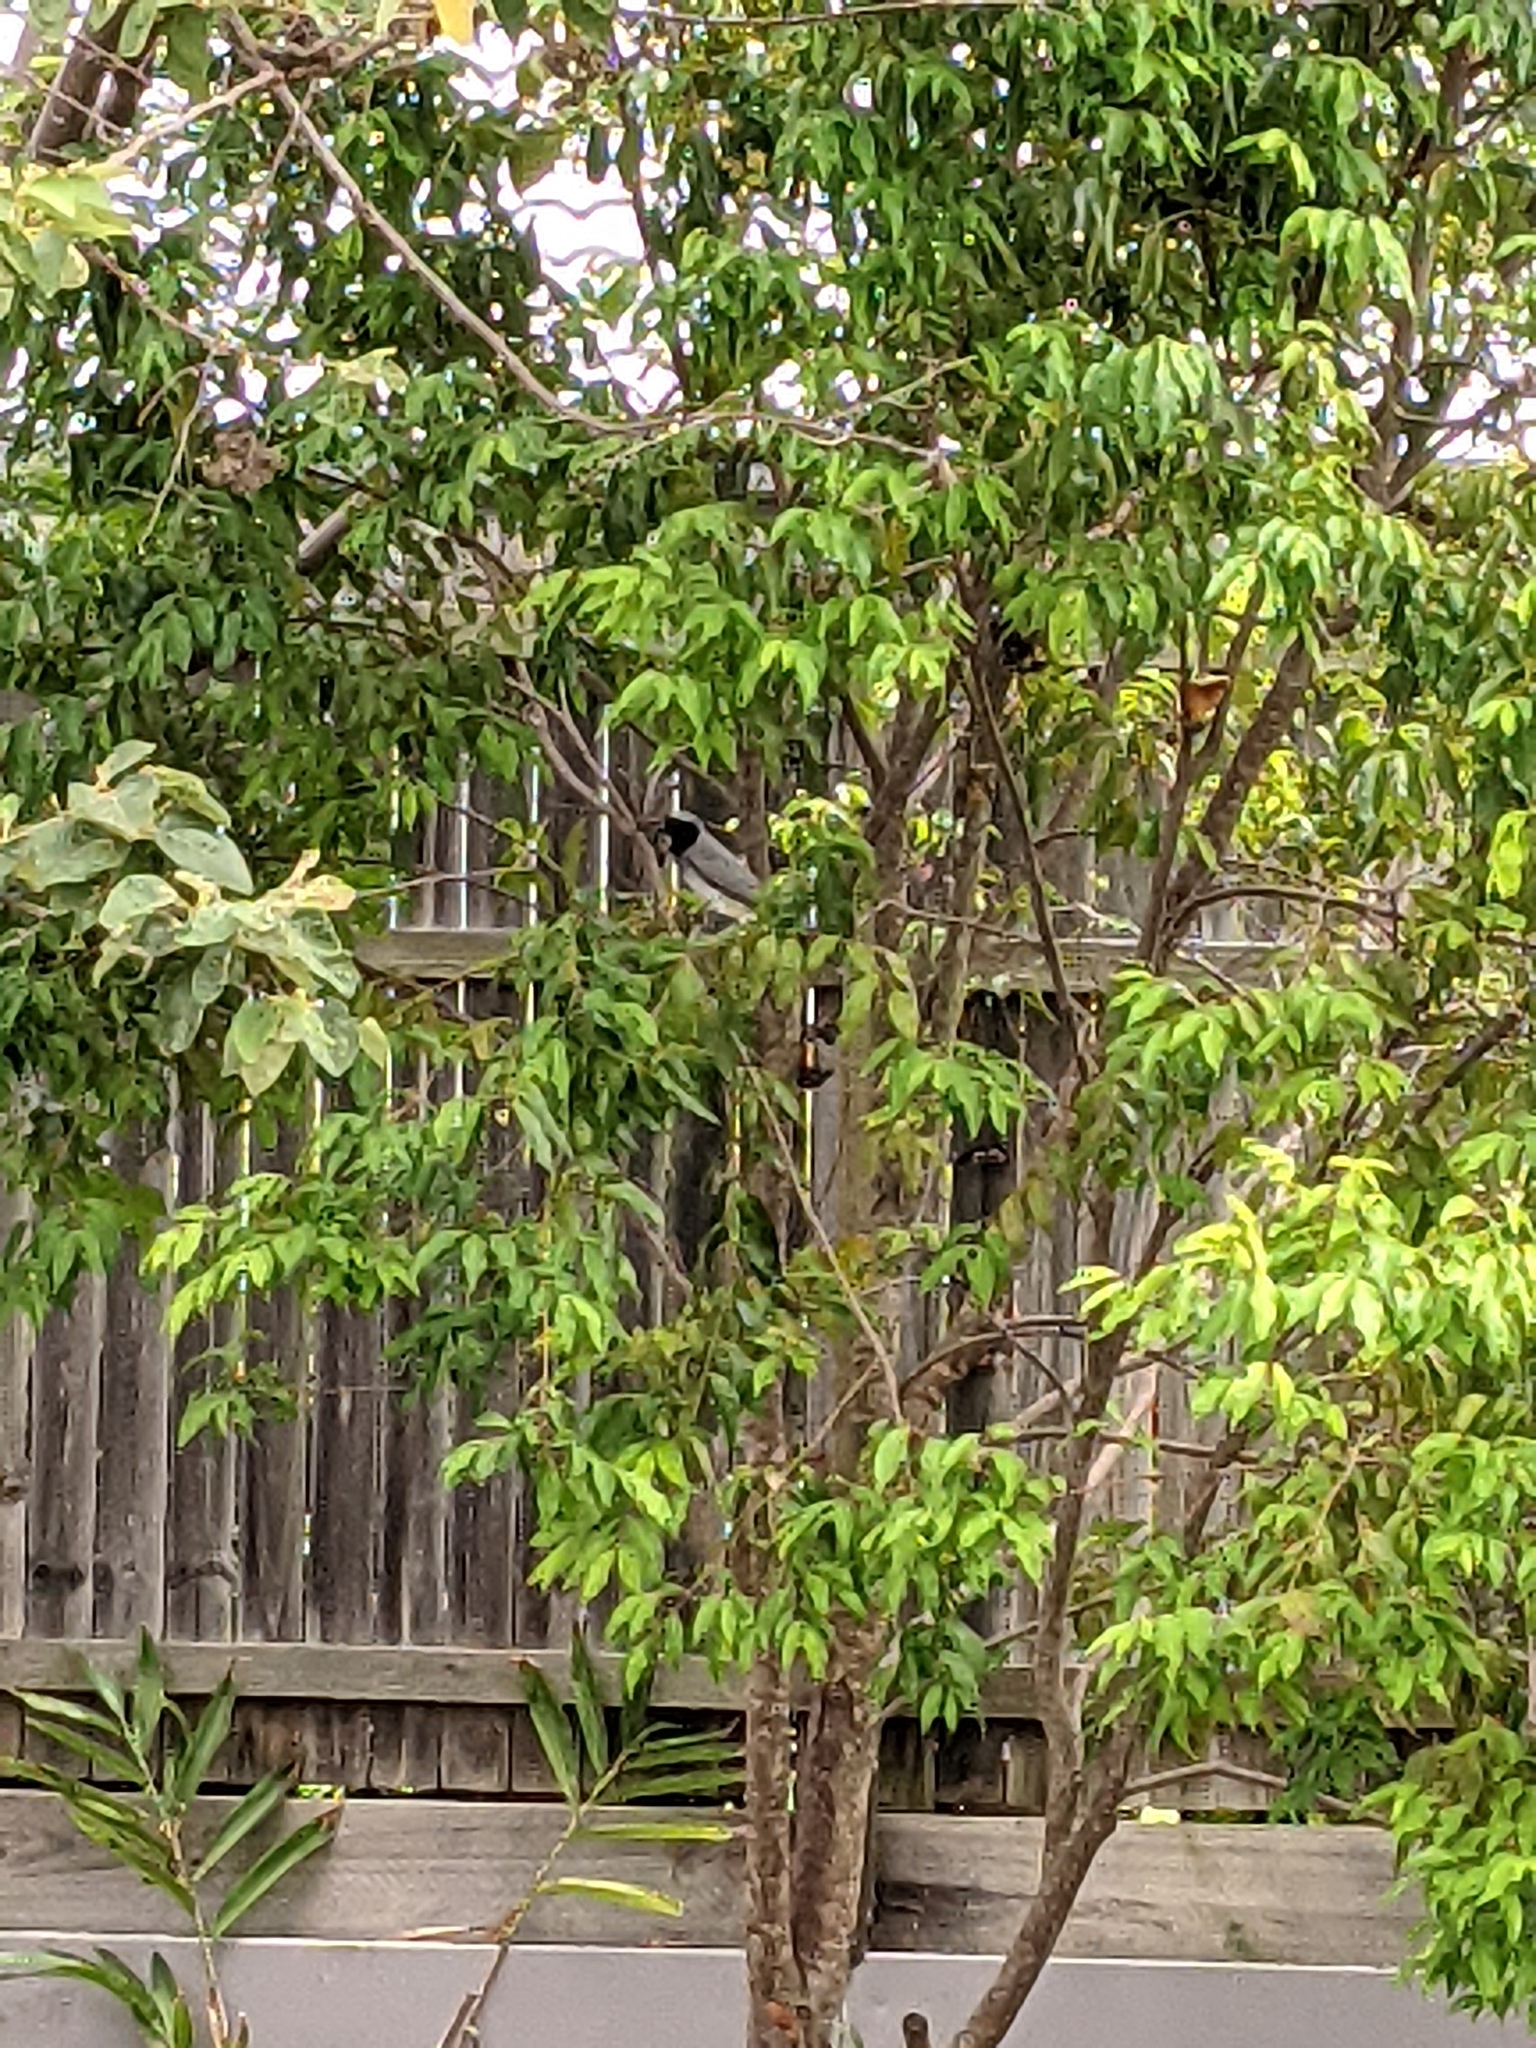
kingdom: Animalia
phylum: Chordata
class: Aves
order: Passeriformes
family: Campephagidae
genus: Coracina
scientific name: Coracina novaehollandiae
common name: Black-faced cuckooshrike
